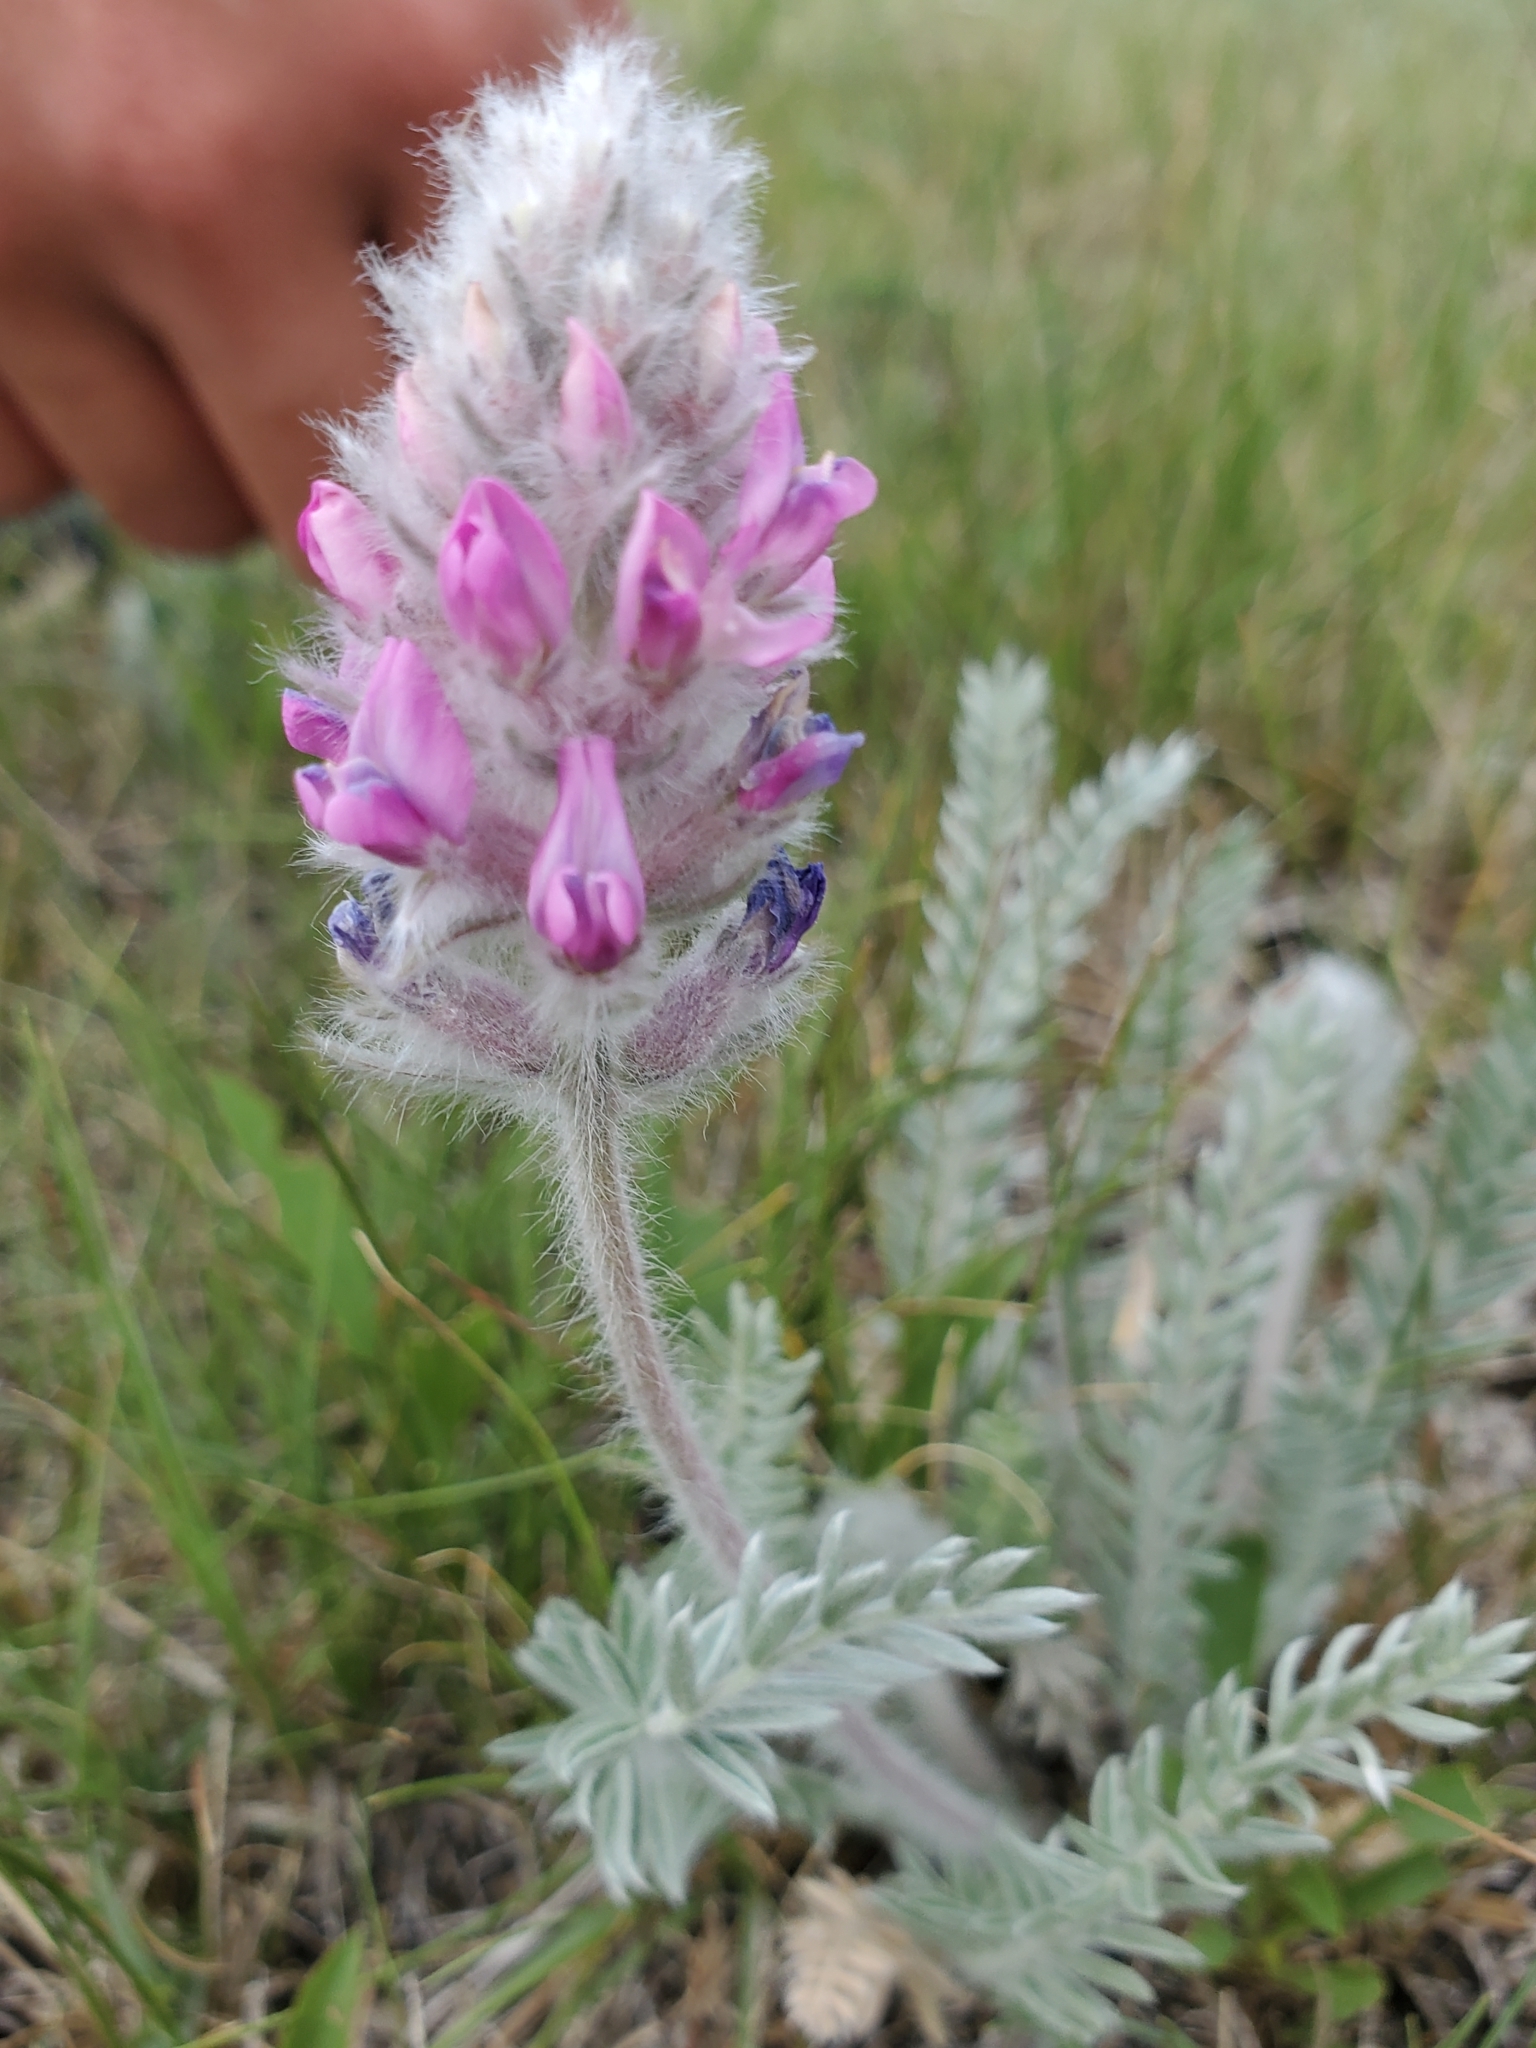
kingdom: Plantae
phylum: Tracheophyta
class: Magnoliopsida
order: Fabales
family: Fabaceae
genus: Oxytropis
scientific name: Oxytropis splendens
